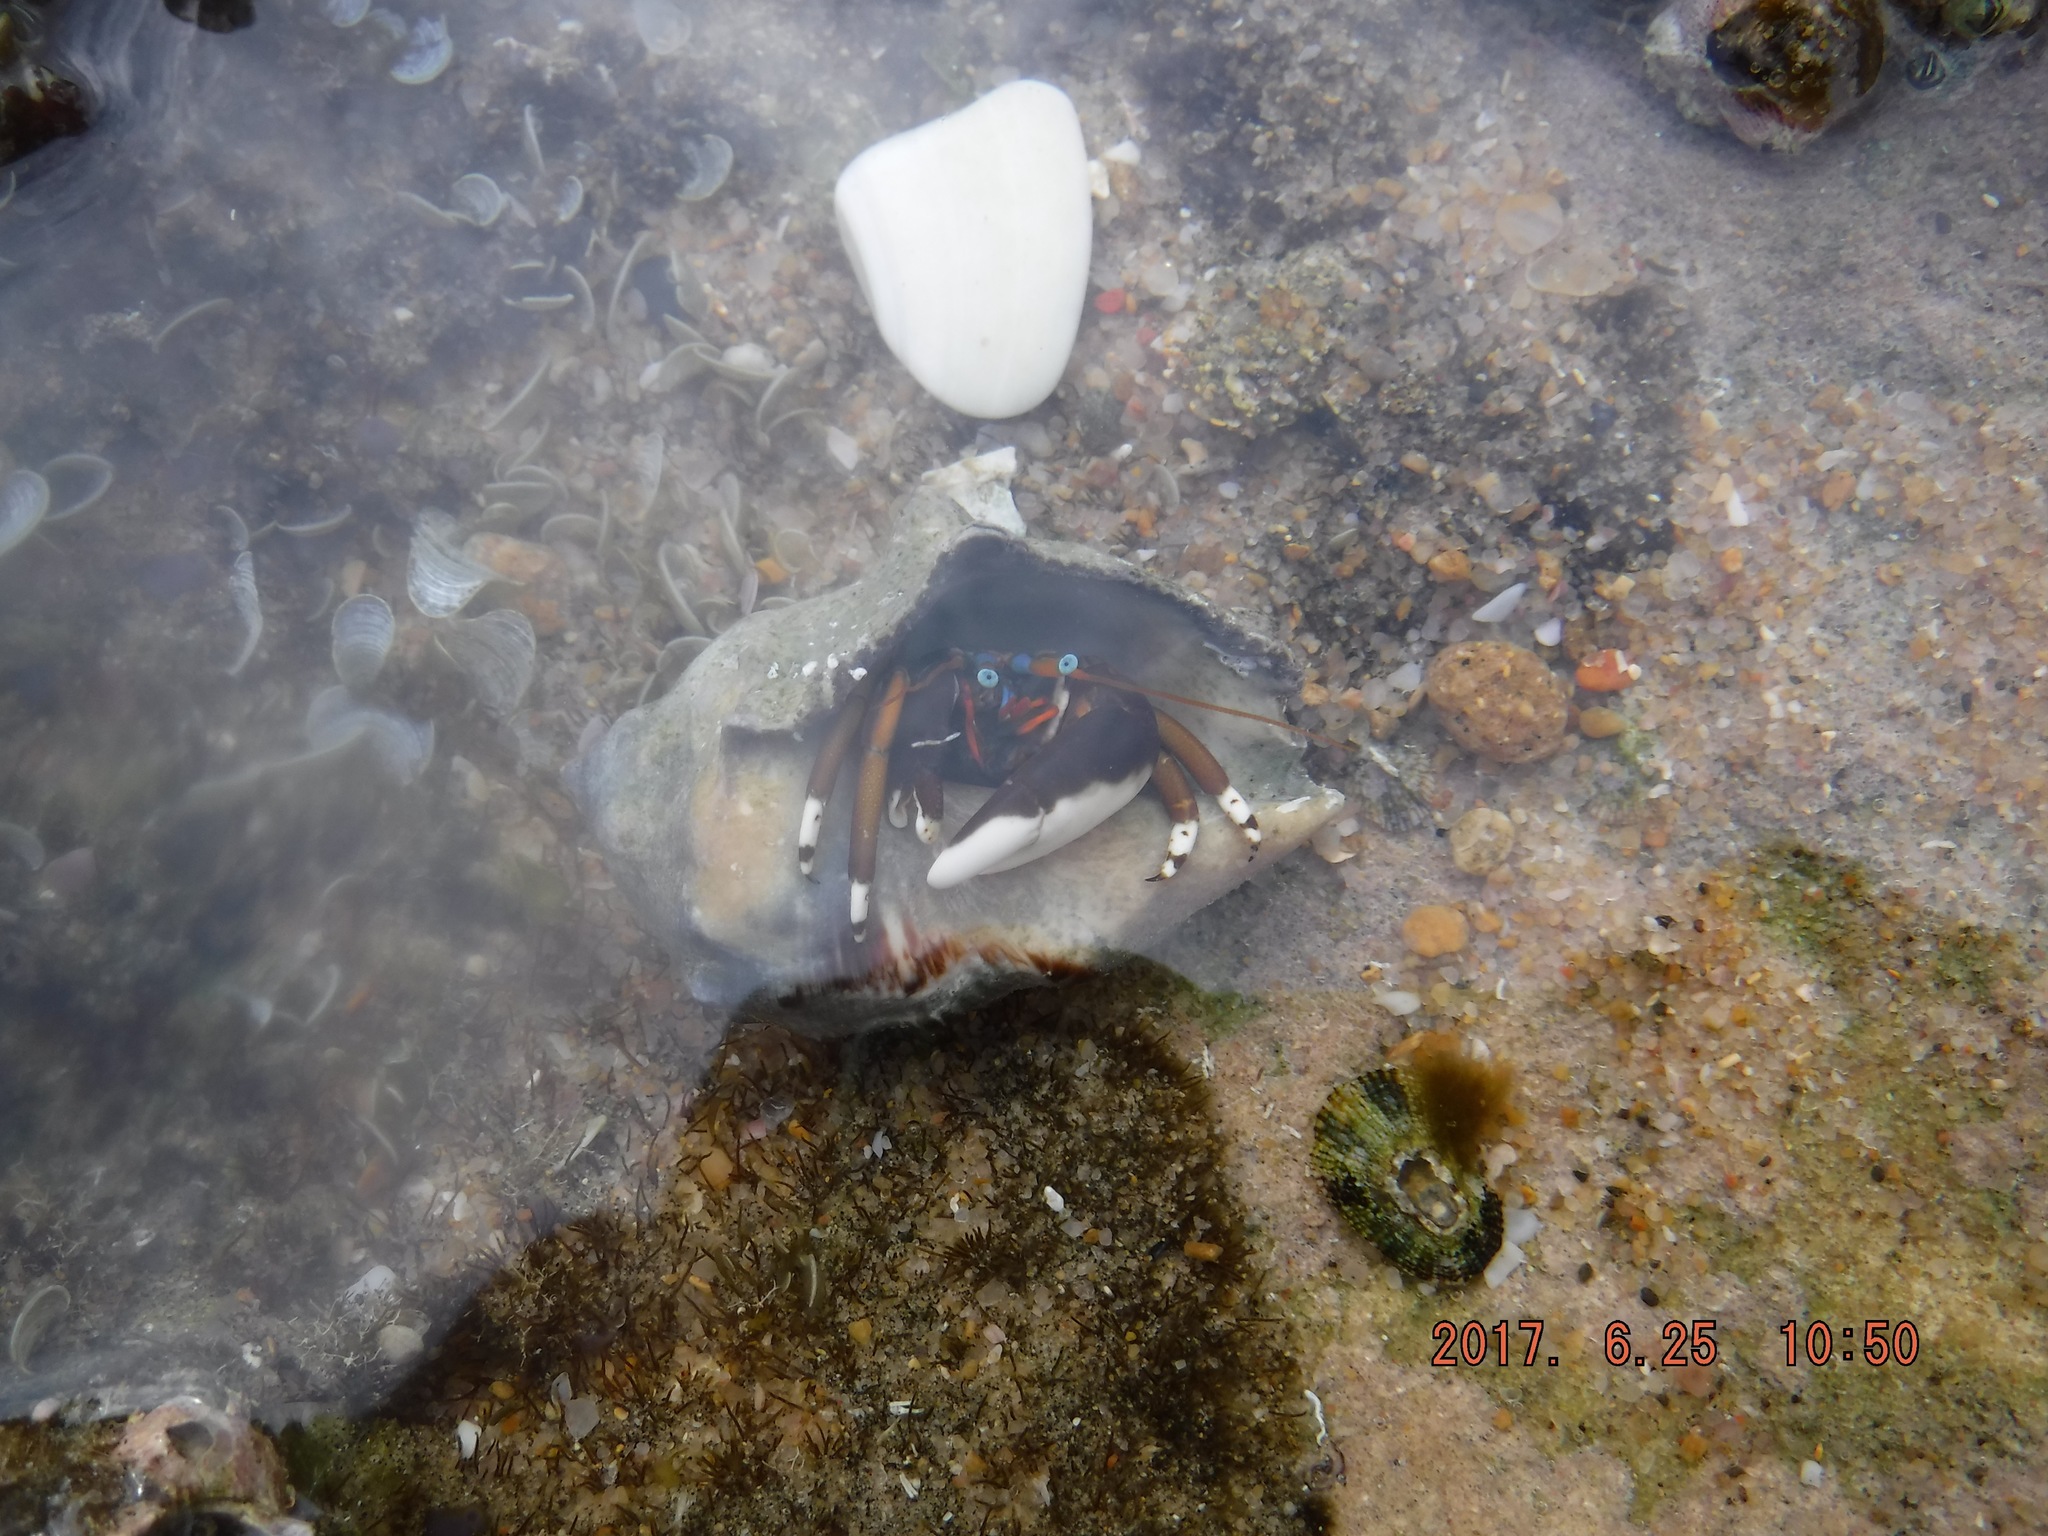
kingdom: Animalia
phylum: Arthropoda
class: Malacostraca
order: Decapoda
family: Diogenidae
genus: Calcinus
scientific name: Calcinus laevimanus
